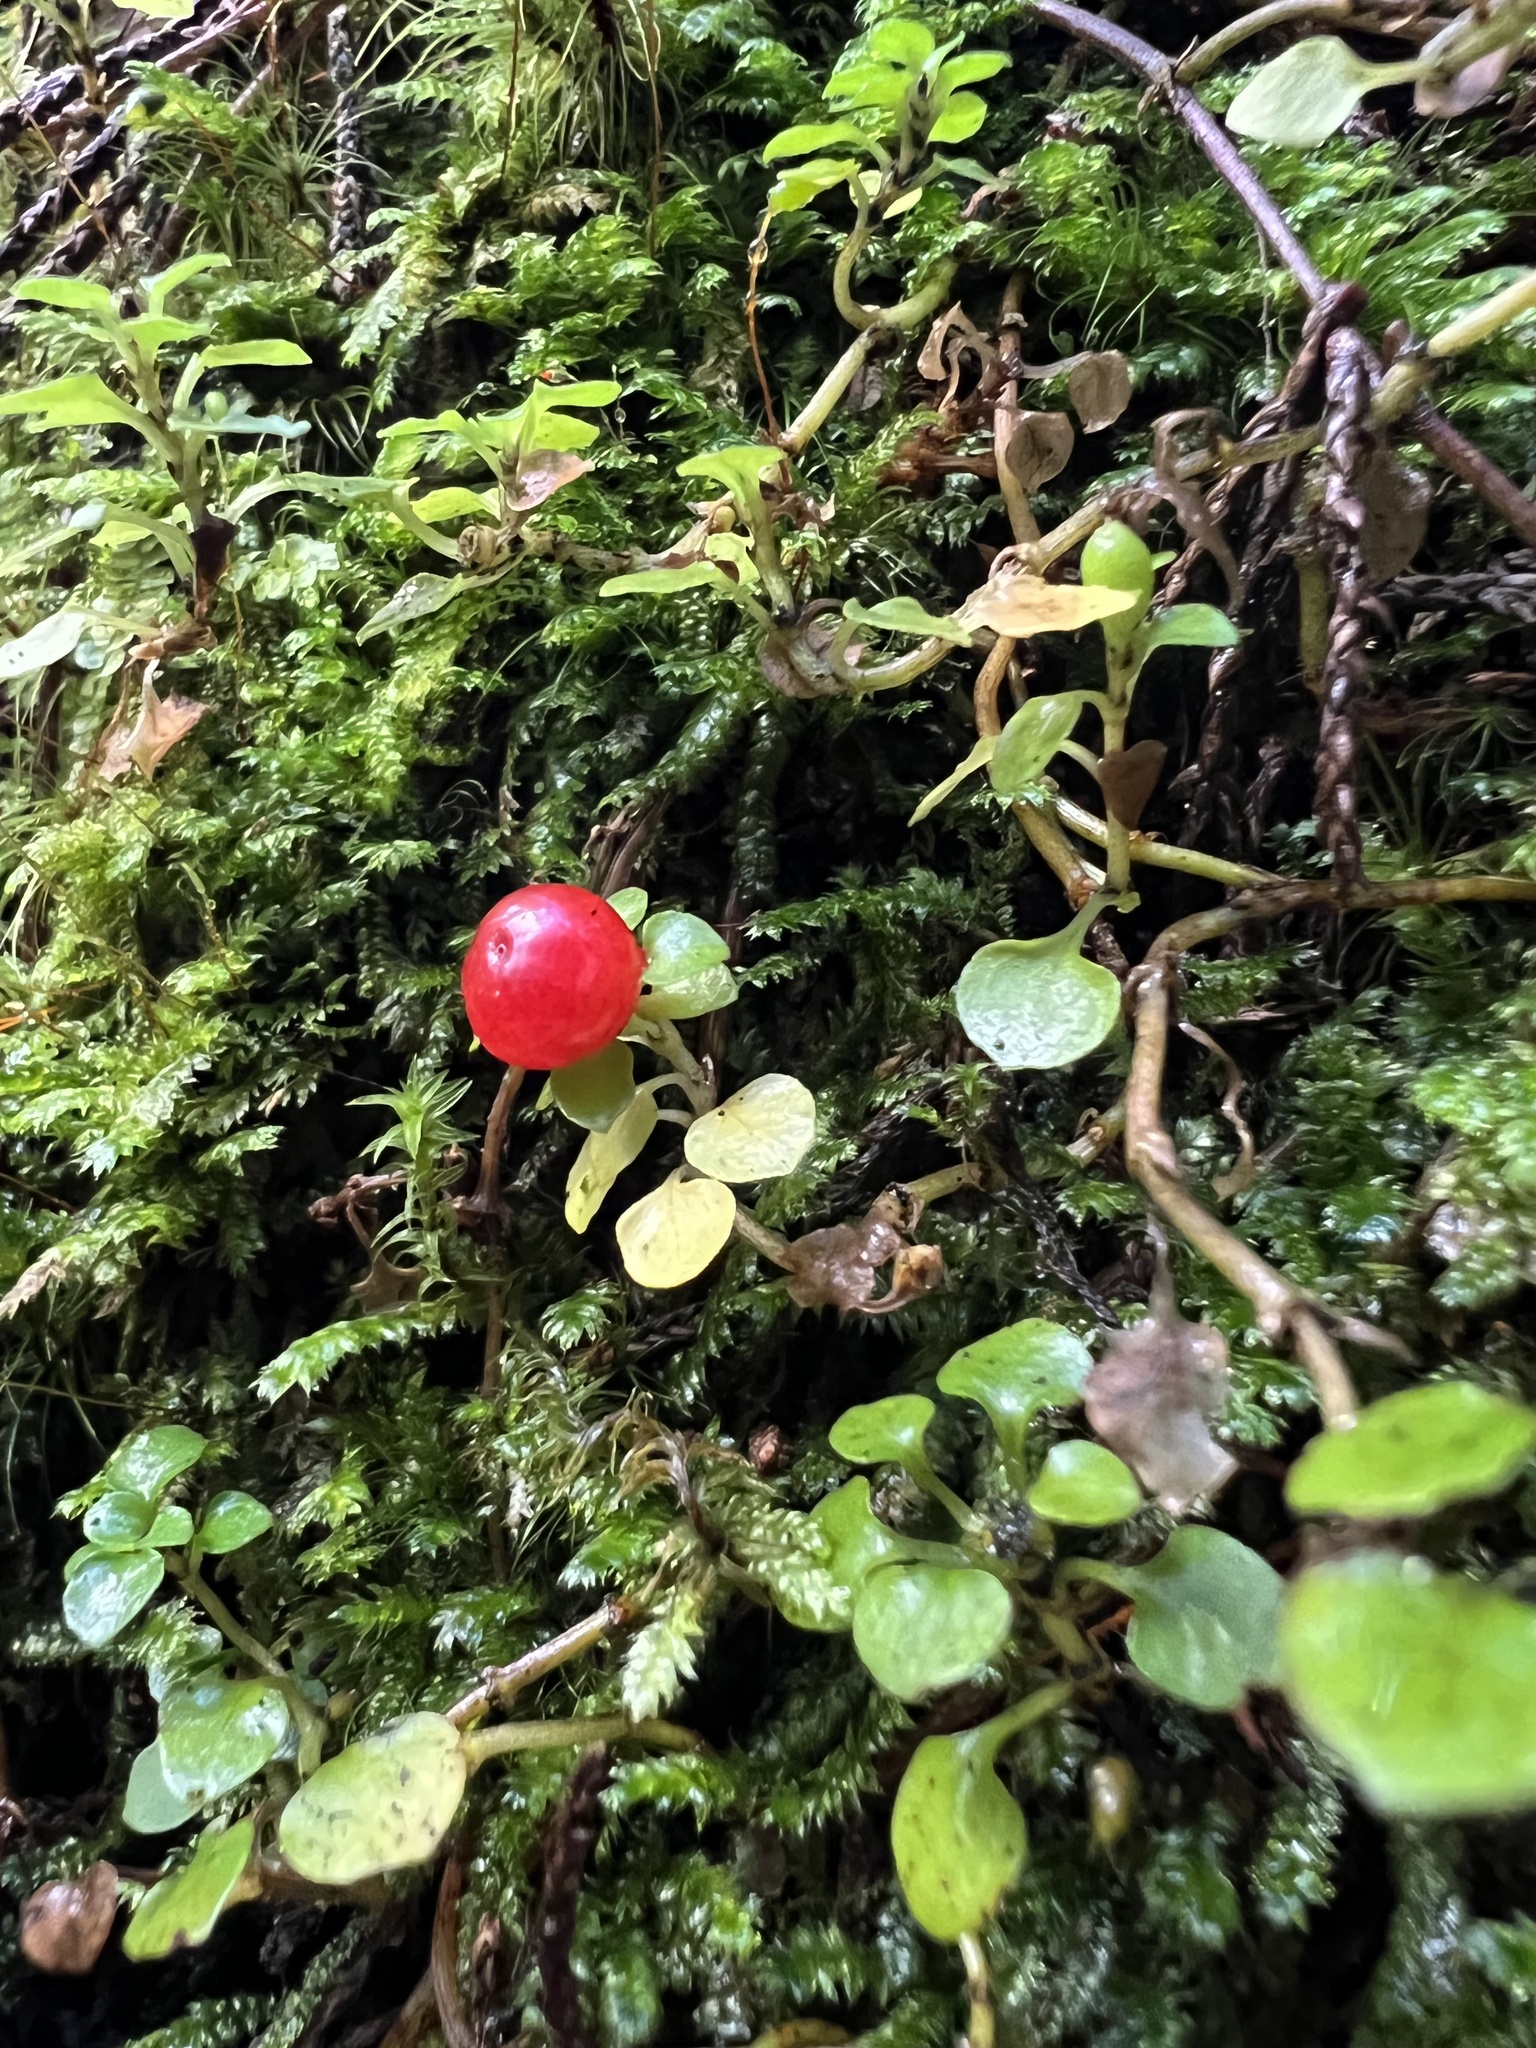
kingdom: Plantae
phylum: Tracheophyta
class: Magnoliopsida
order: Gentianales
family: Rubiaceae
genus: Nertera
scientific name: Nertera granadensis
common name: Beadplant
